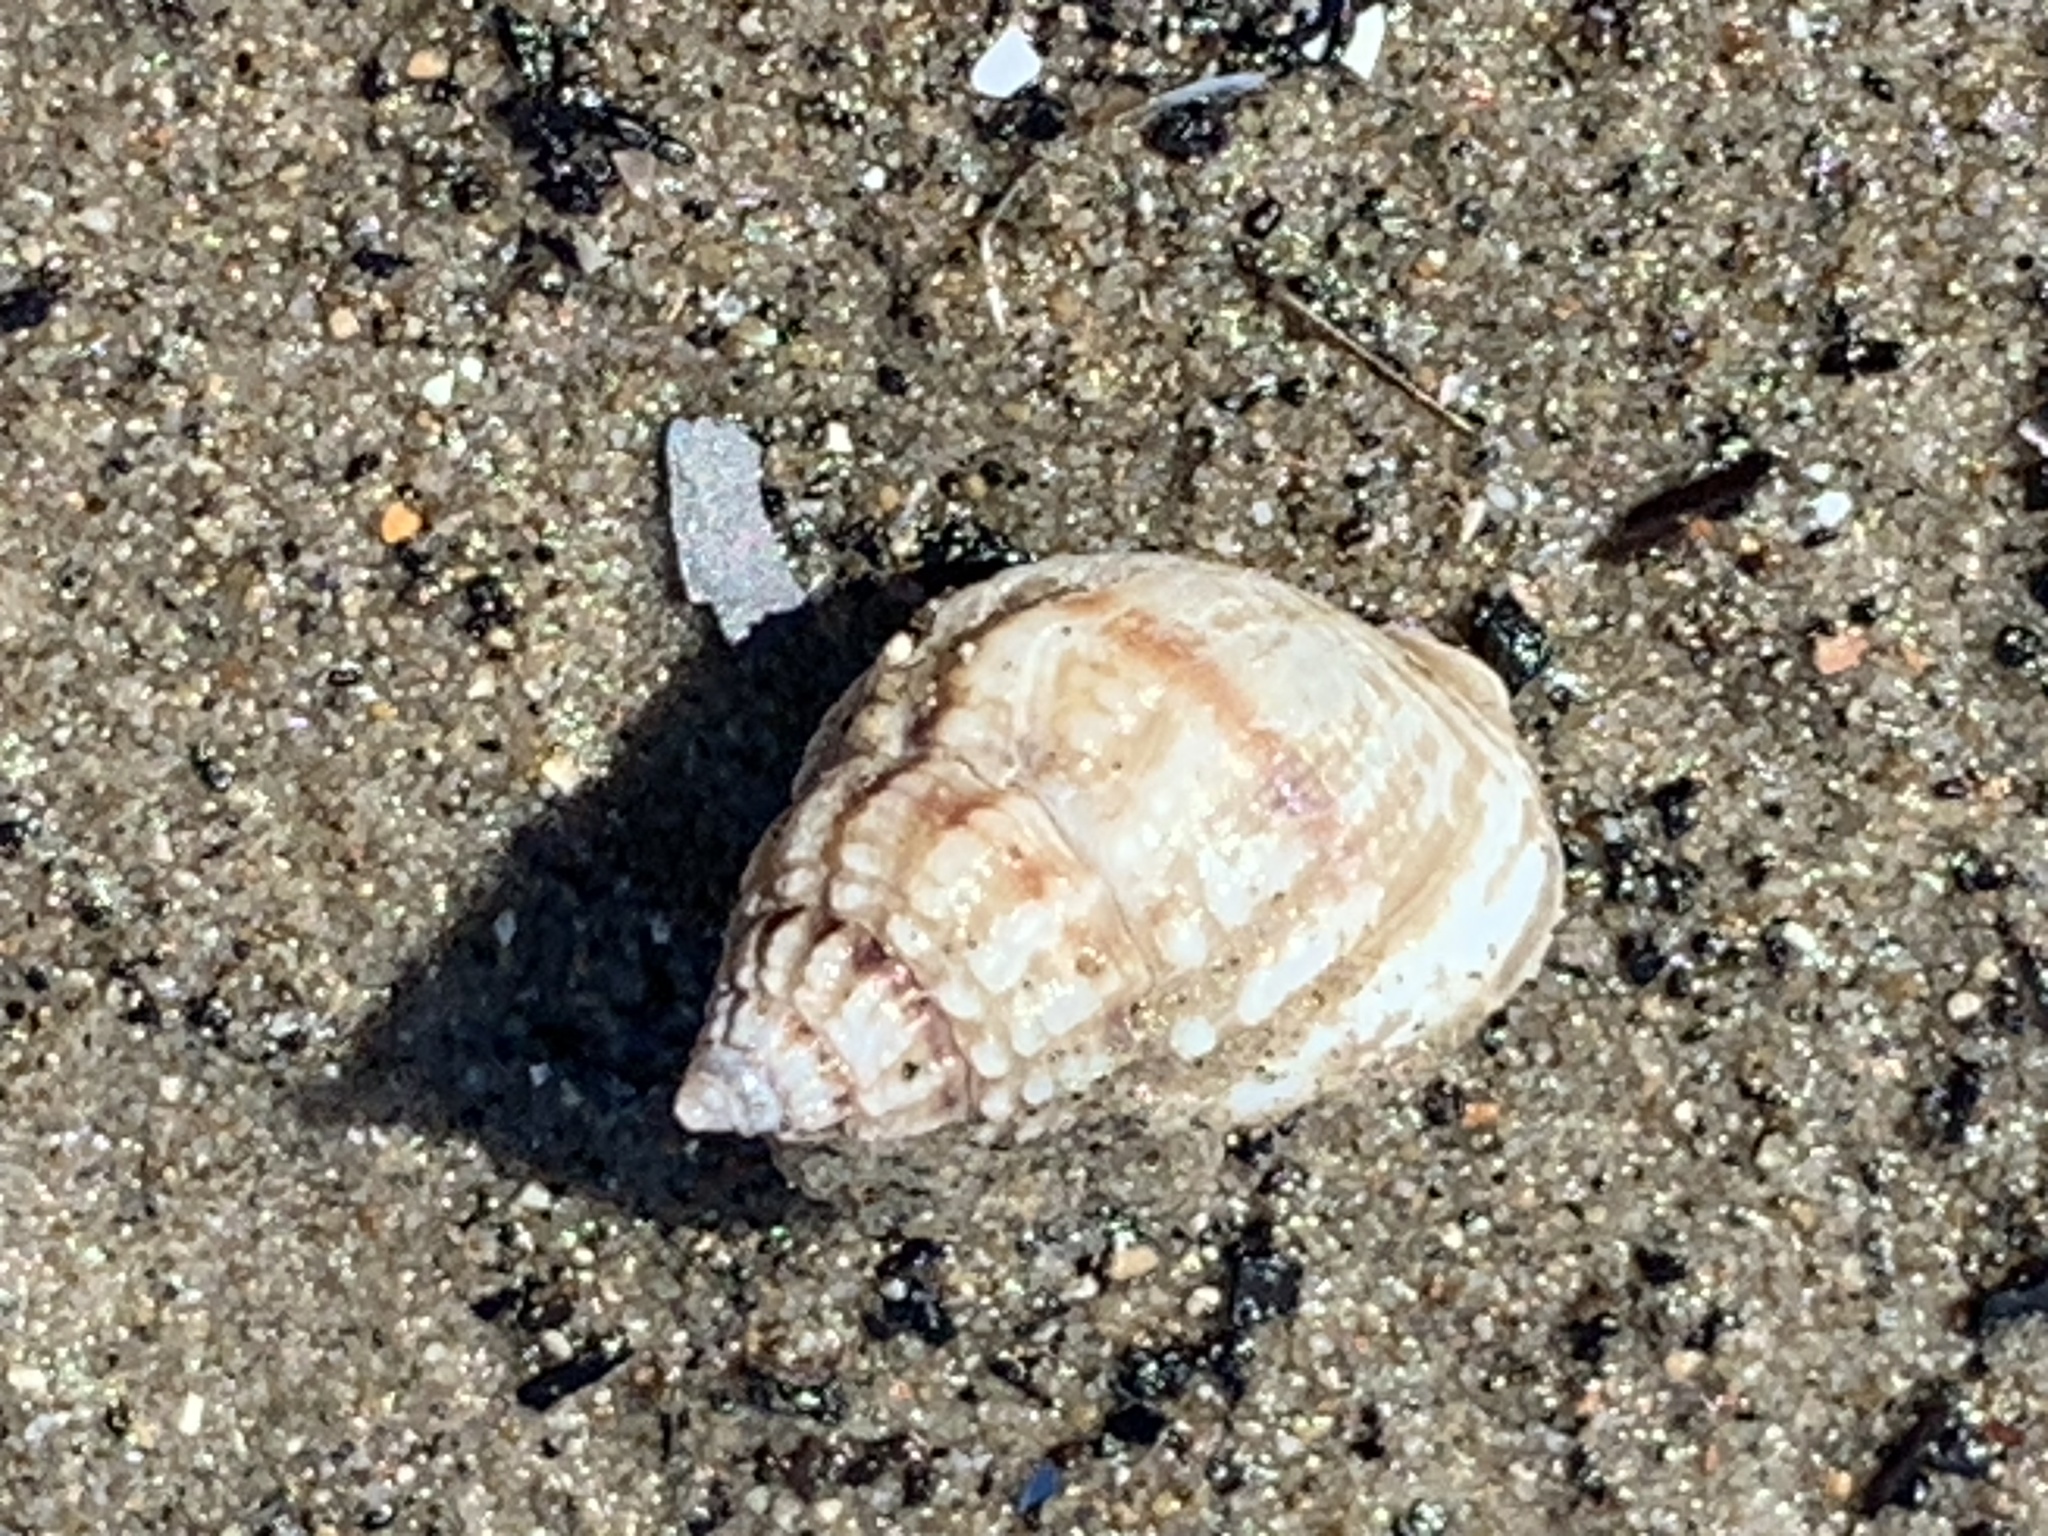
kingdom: Animalia
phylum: Mollusca
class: Gastropoda
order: Neogastropoda
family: Nassariidae
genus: Nassarius
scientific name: Nassarius pauperatus
